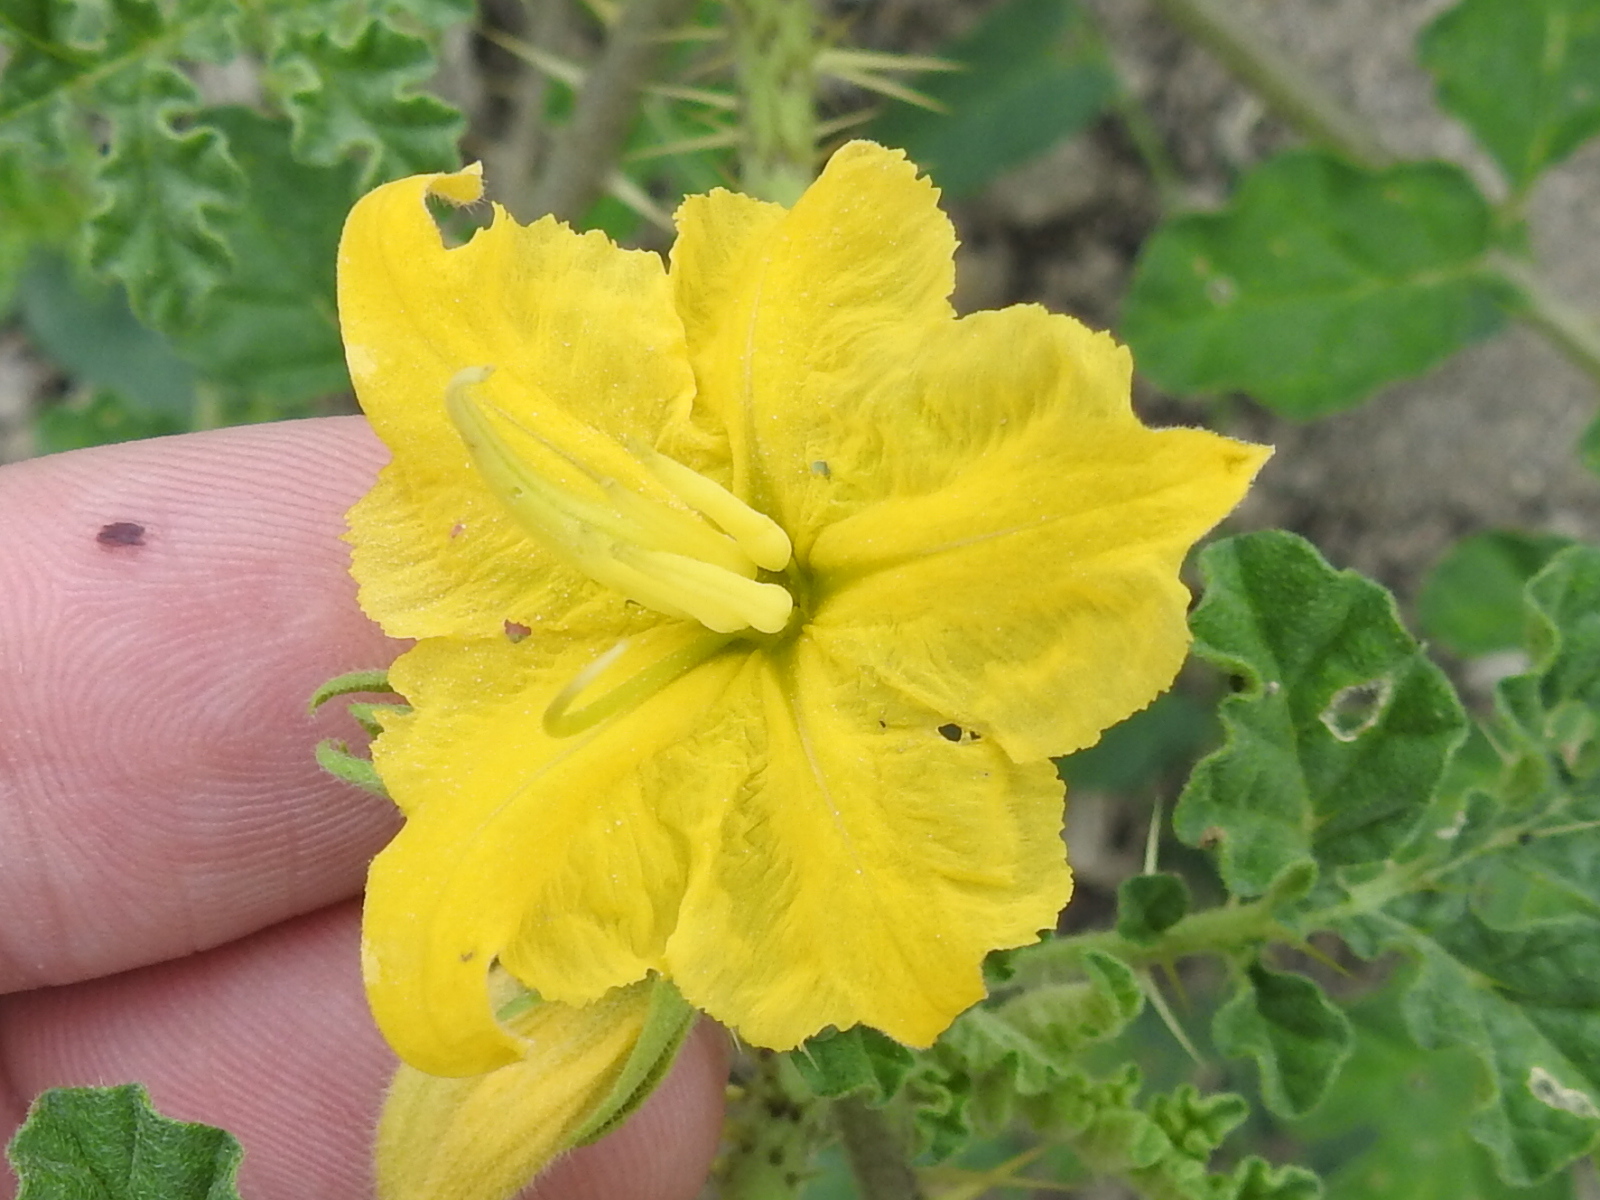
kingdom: Plantae
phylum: Tracheophyta
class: Magnoliopsida
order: Solanales
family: Solanaceae
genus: Solanum
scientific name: Solanum angustifolium
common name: Buffalobur nightshade
